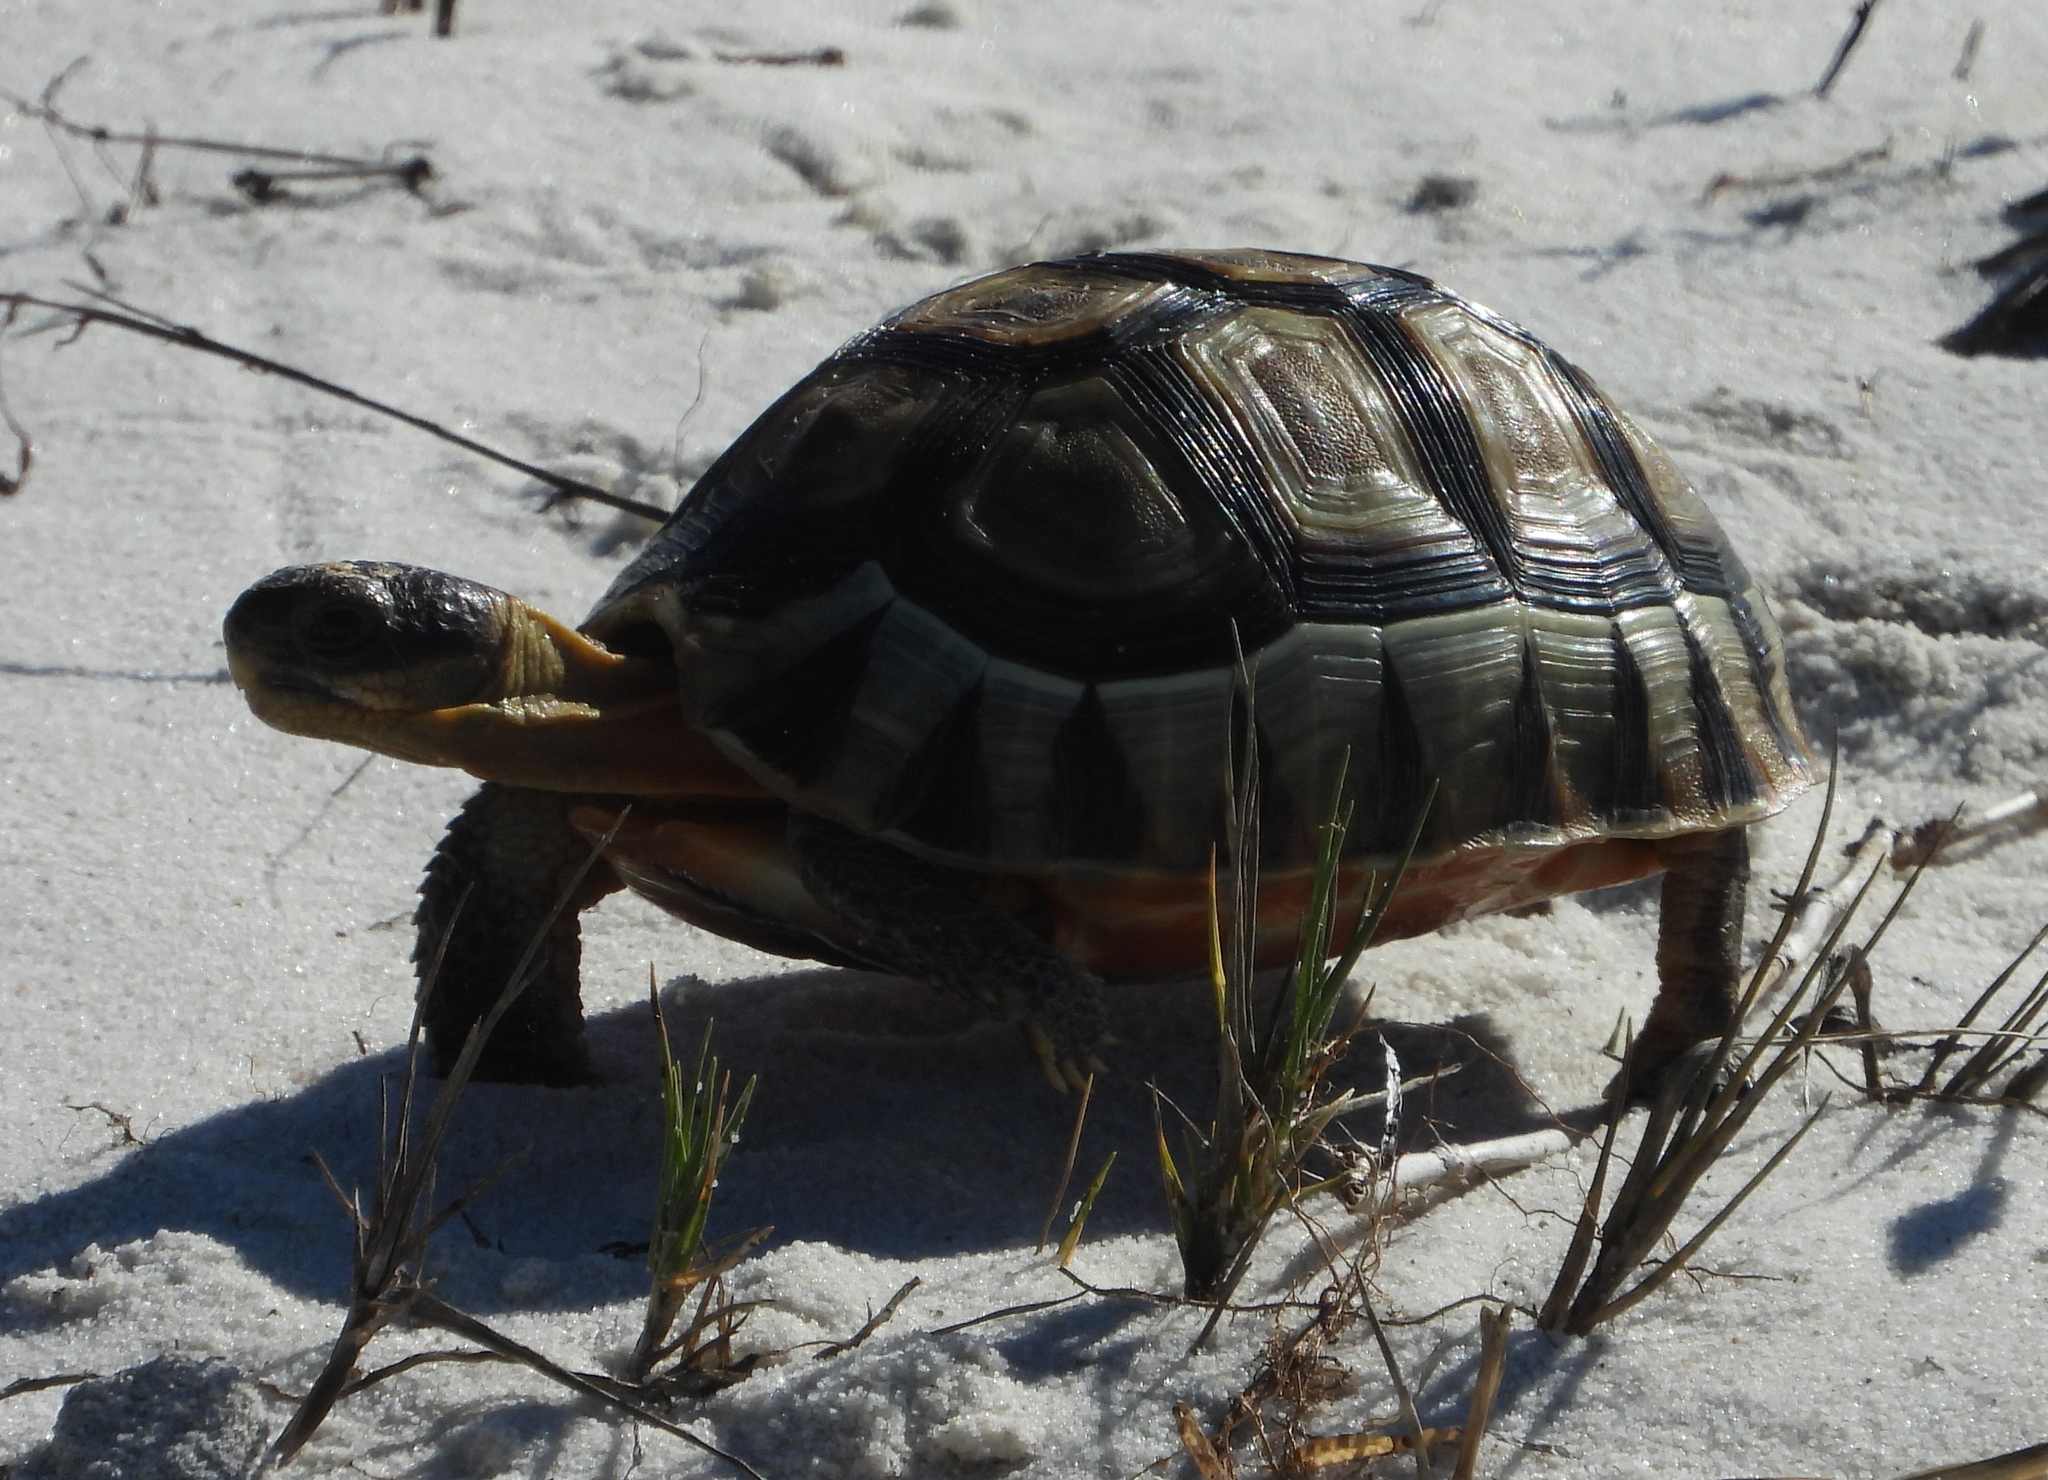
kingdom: Animalia
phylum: Chordata
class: Testudines
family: Testudinidae
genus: Chersina
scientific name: Chersina angulata
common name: South african bowsprit tortoise
